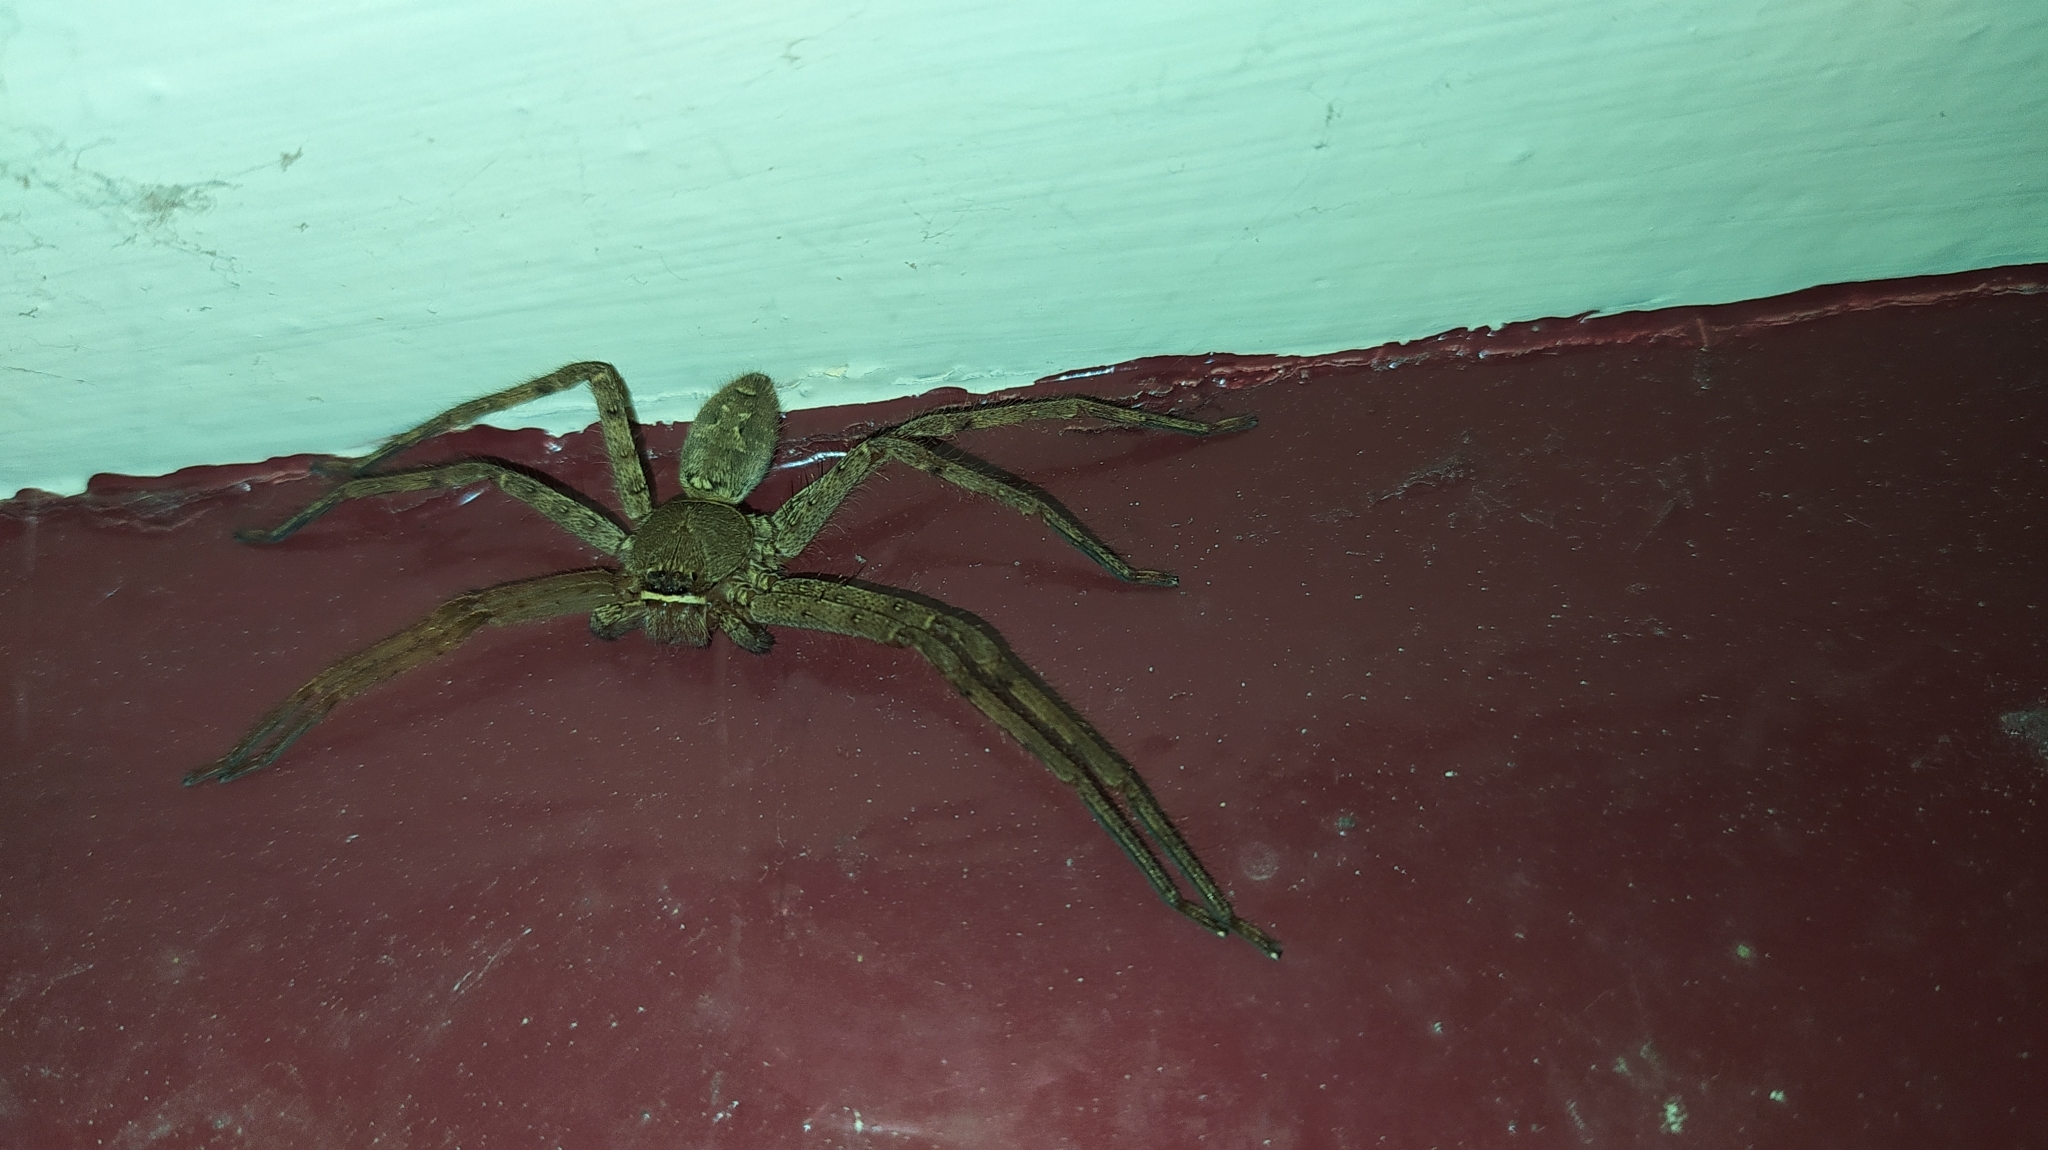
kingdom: Animalia
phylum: Arthropoda
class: Arachnida
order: Araneae
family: Sparassidae
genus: Heteropoda
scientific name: Heteropoda venatoria
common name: Huntsman spider
